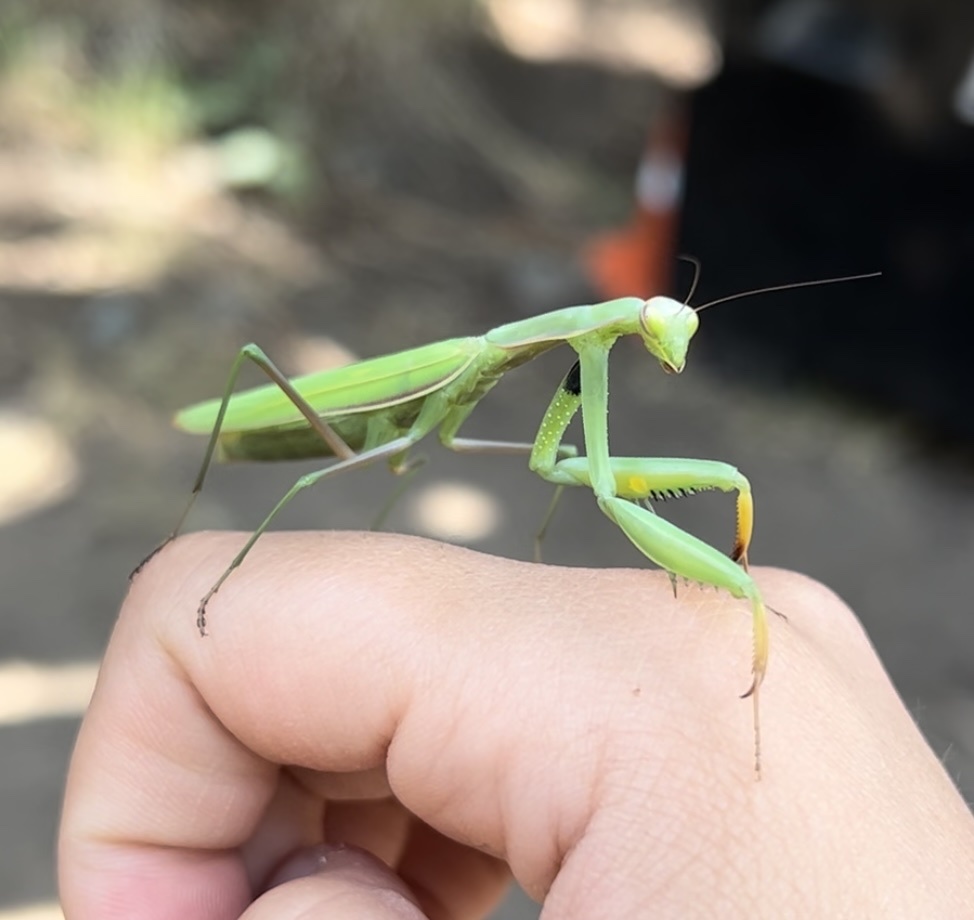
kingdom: Animalia
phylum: Arthropoda
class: Insecta
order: Mantodea
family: Mantidae
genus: Mantis
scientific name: Mantis religiosa
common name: Praying mantis
